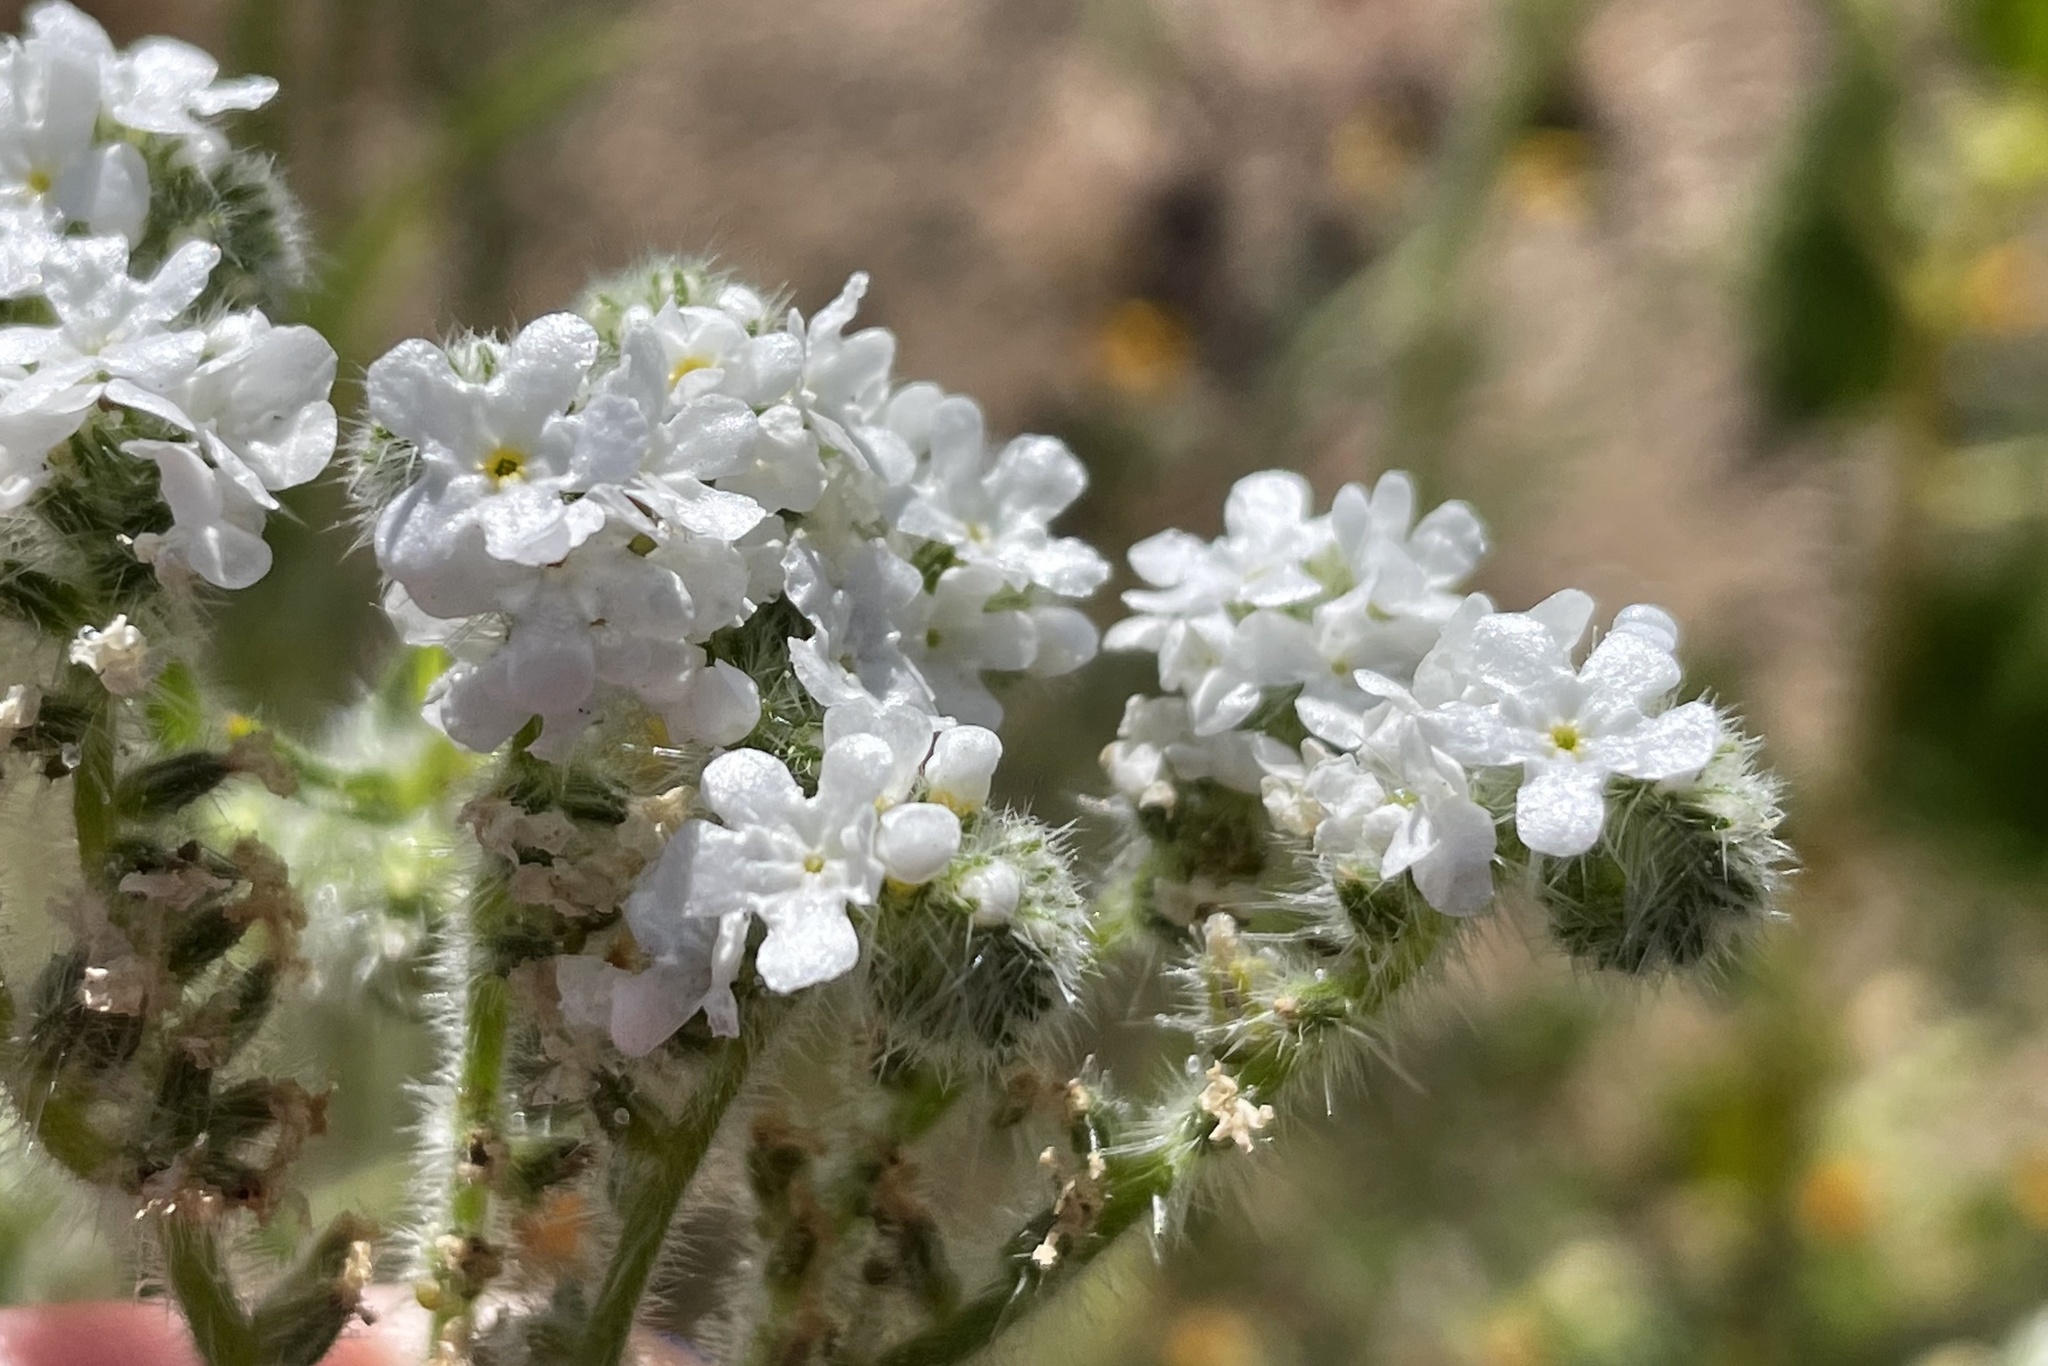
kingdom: Plantae
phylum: Tracheophyta
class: Magnoliopsida
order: Boraginales
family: Boraginaceae
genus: Cryptantha
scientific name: Cryptantha intermedia
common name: Clearwater cryptantha
